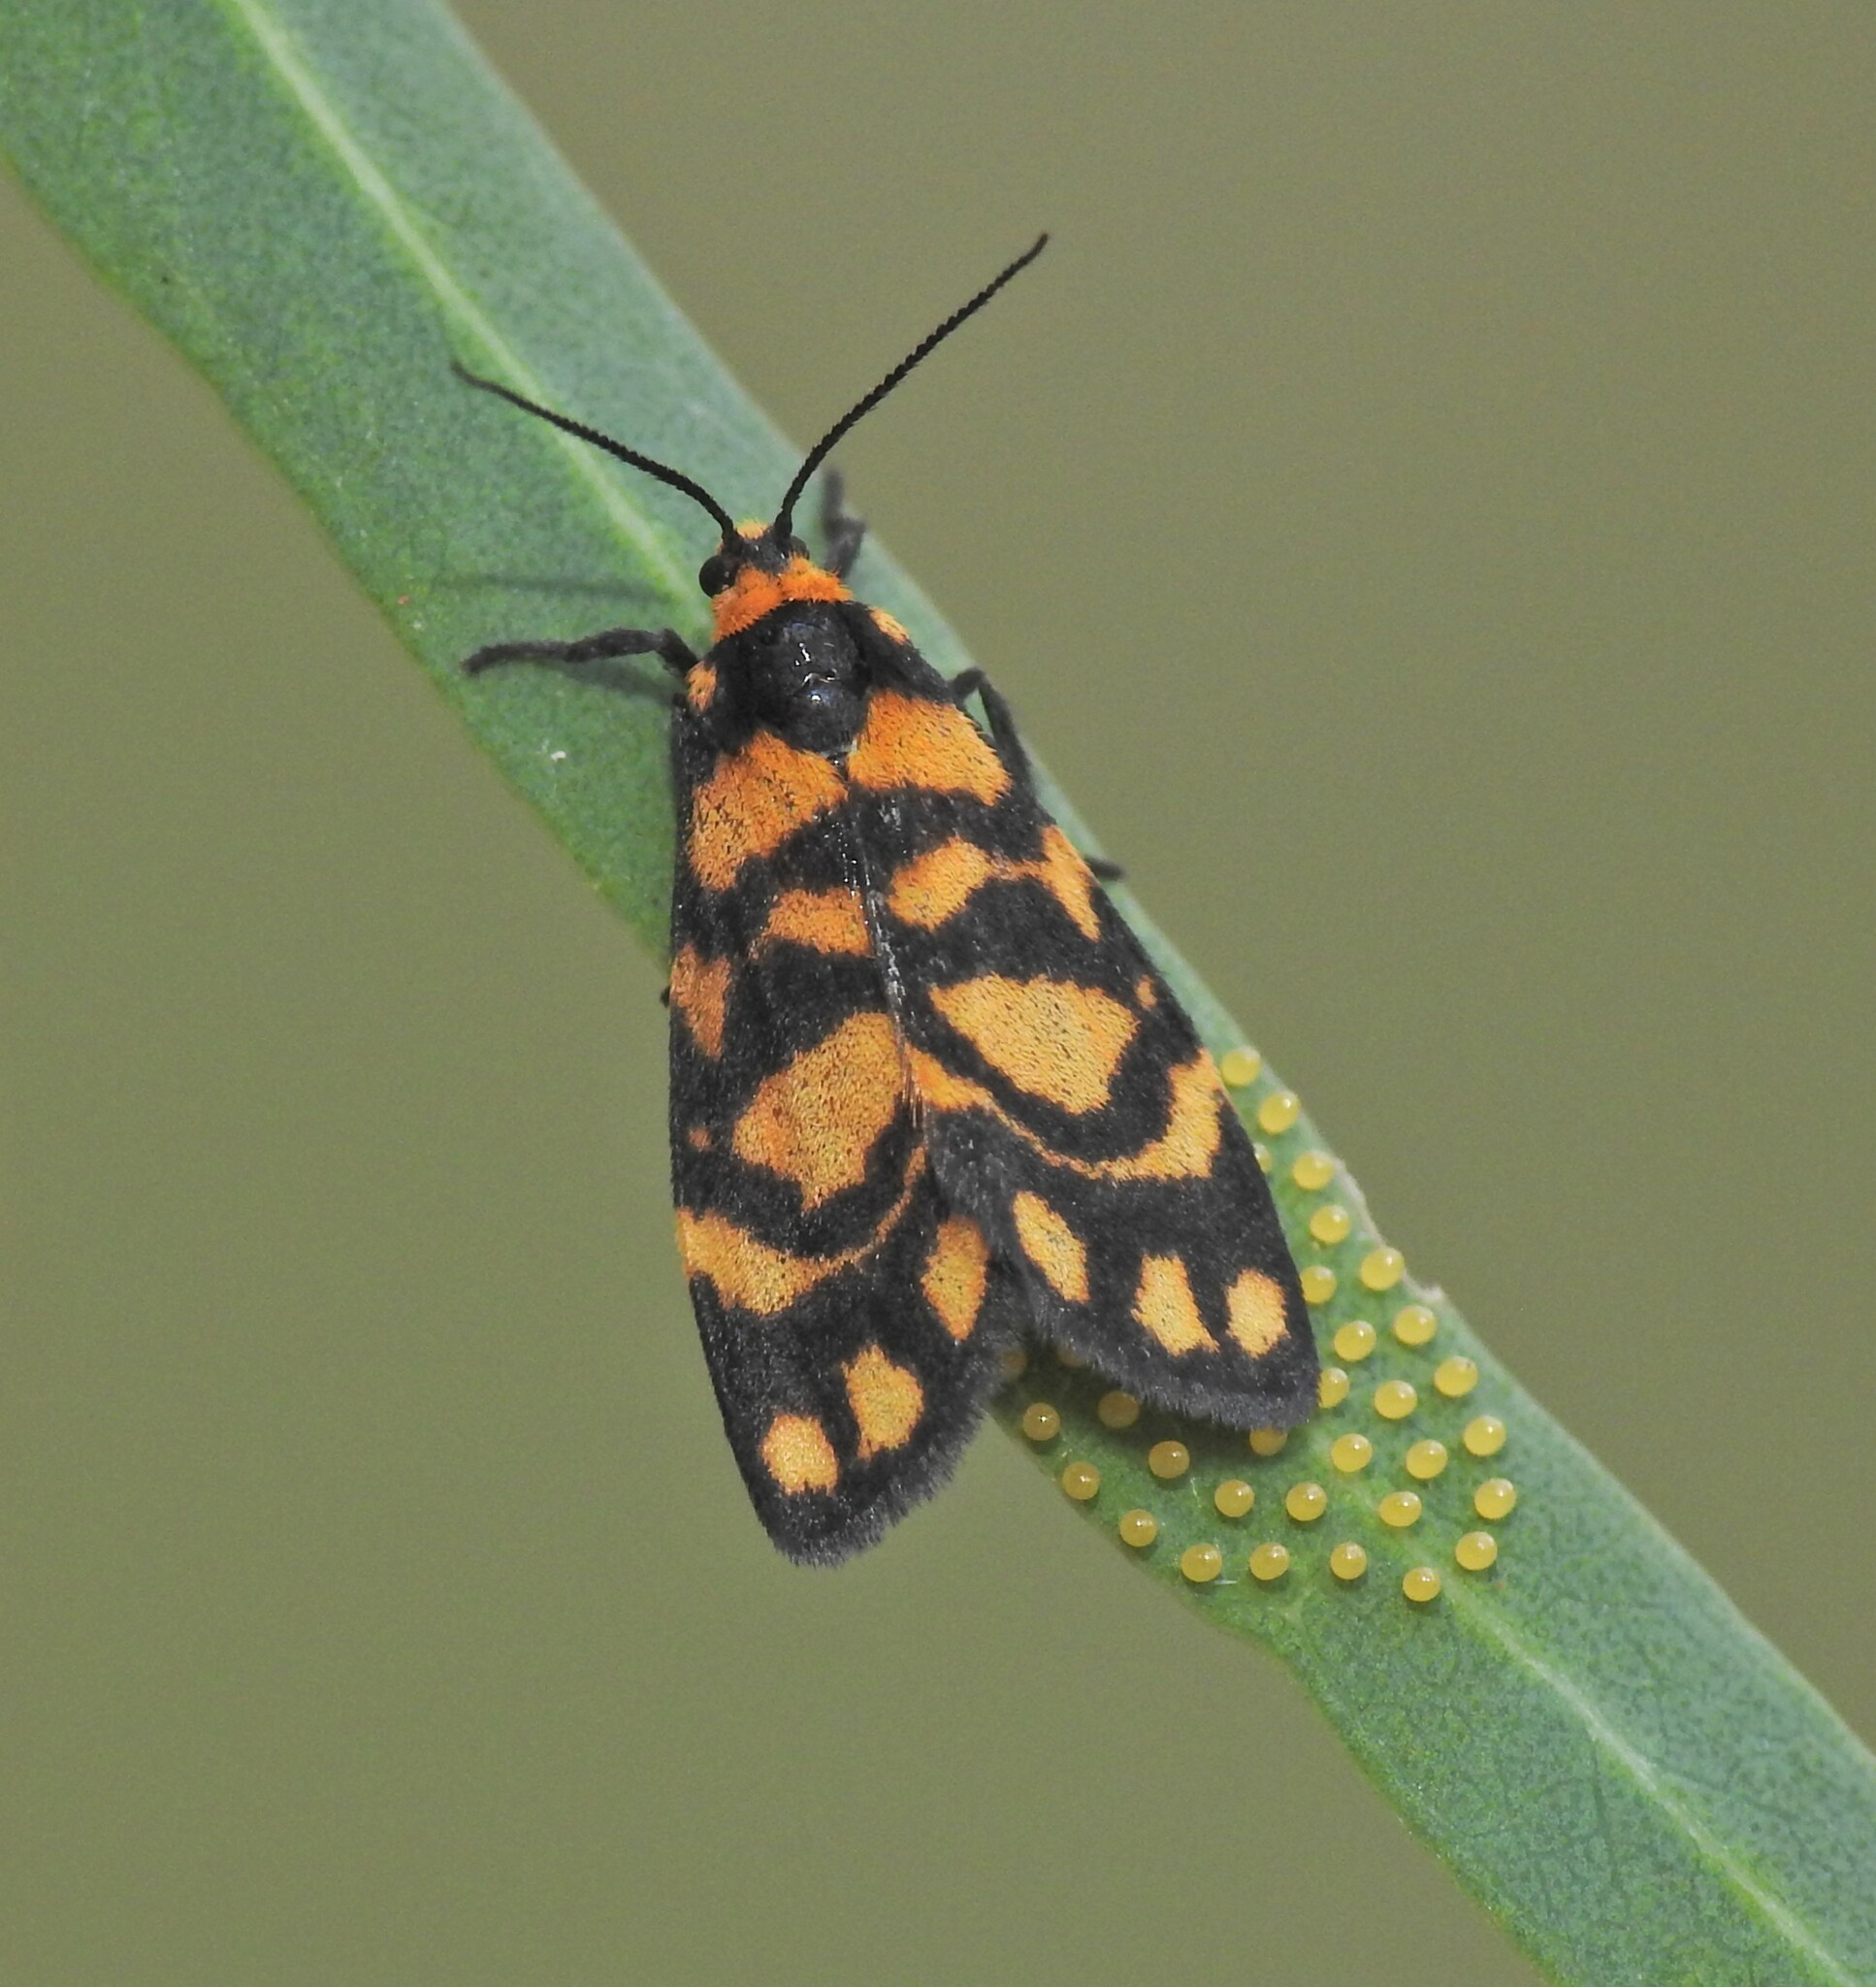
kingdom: Animalia
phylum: Arthropoda
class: Insecta
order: Lepidoptera
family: Erebidae
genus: Asura
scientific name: Asura lydia
